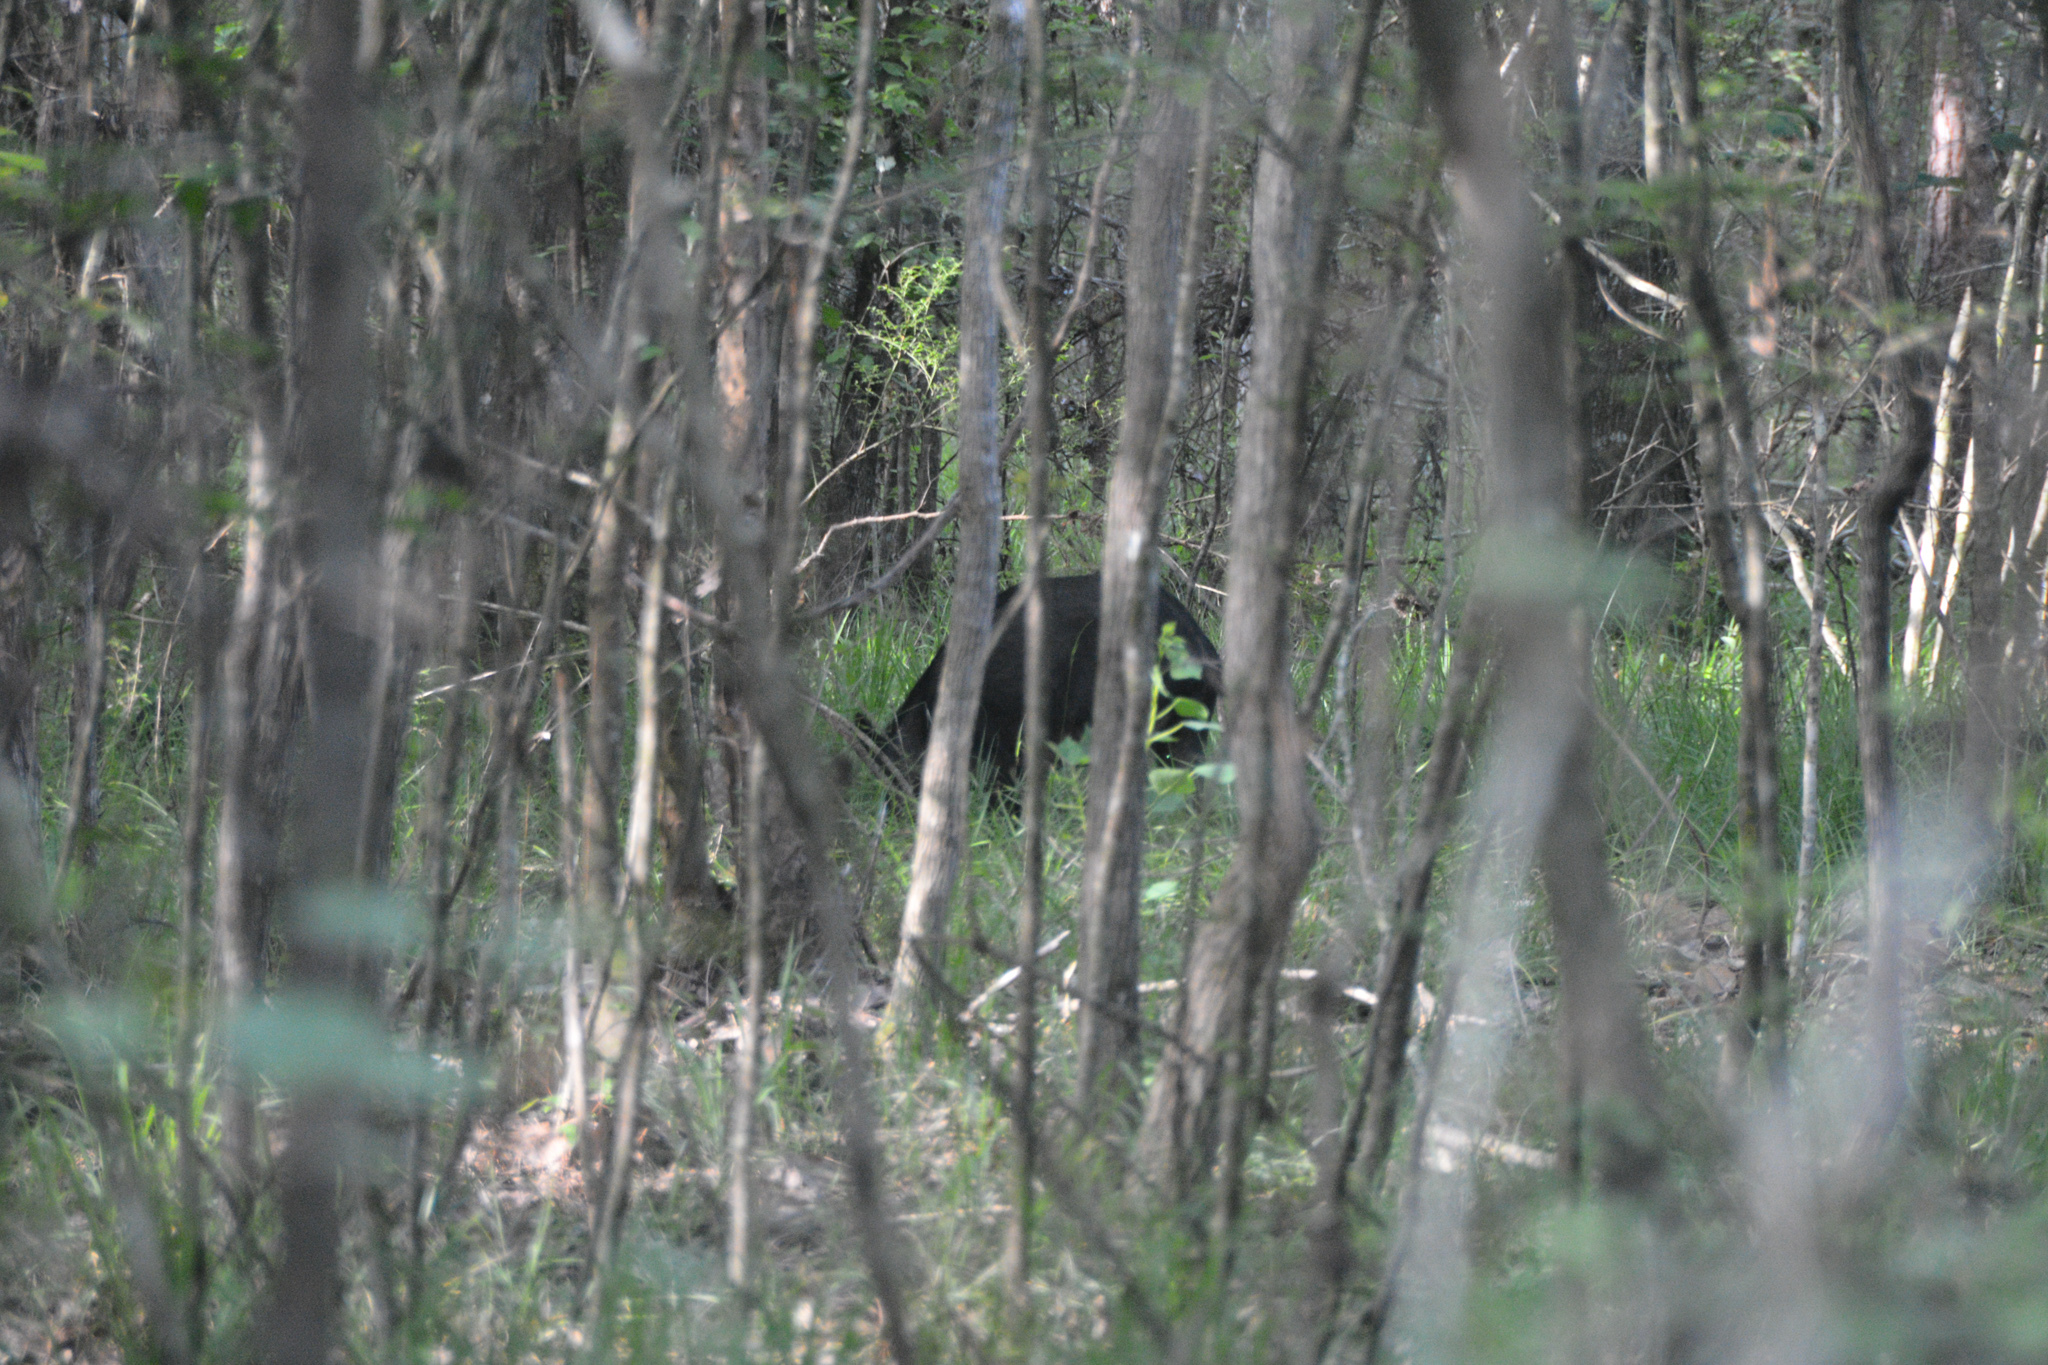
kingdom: Animalia
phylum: Chordata
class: Mammalia
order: Artiodactyla
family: Suidae
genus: Sus
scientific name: Sus scrofa
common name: Wild boar
